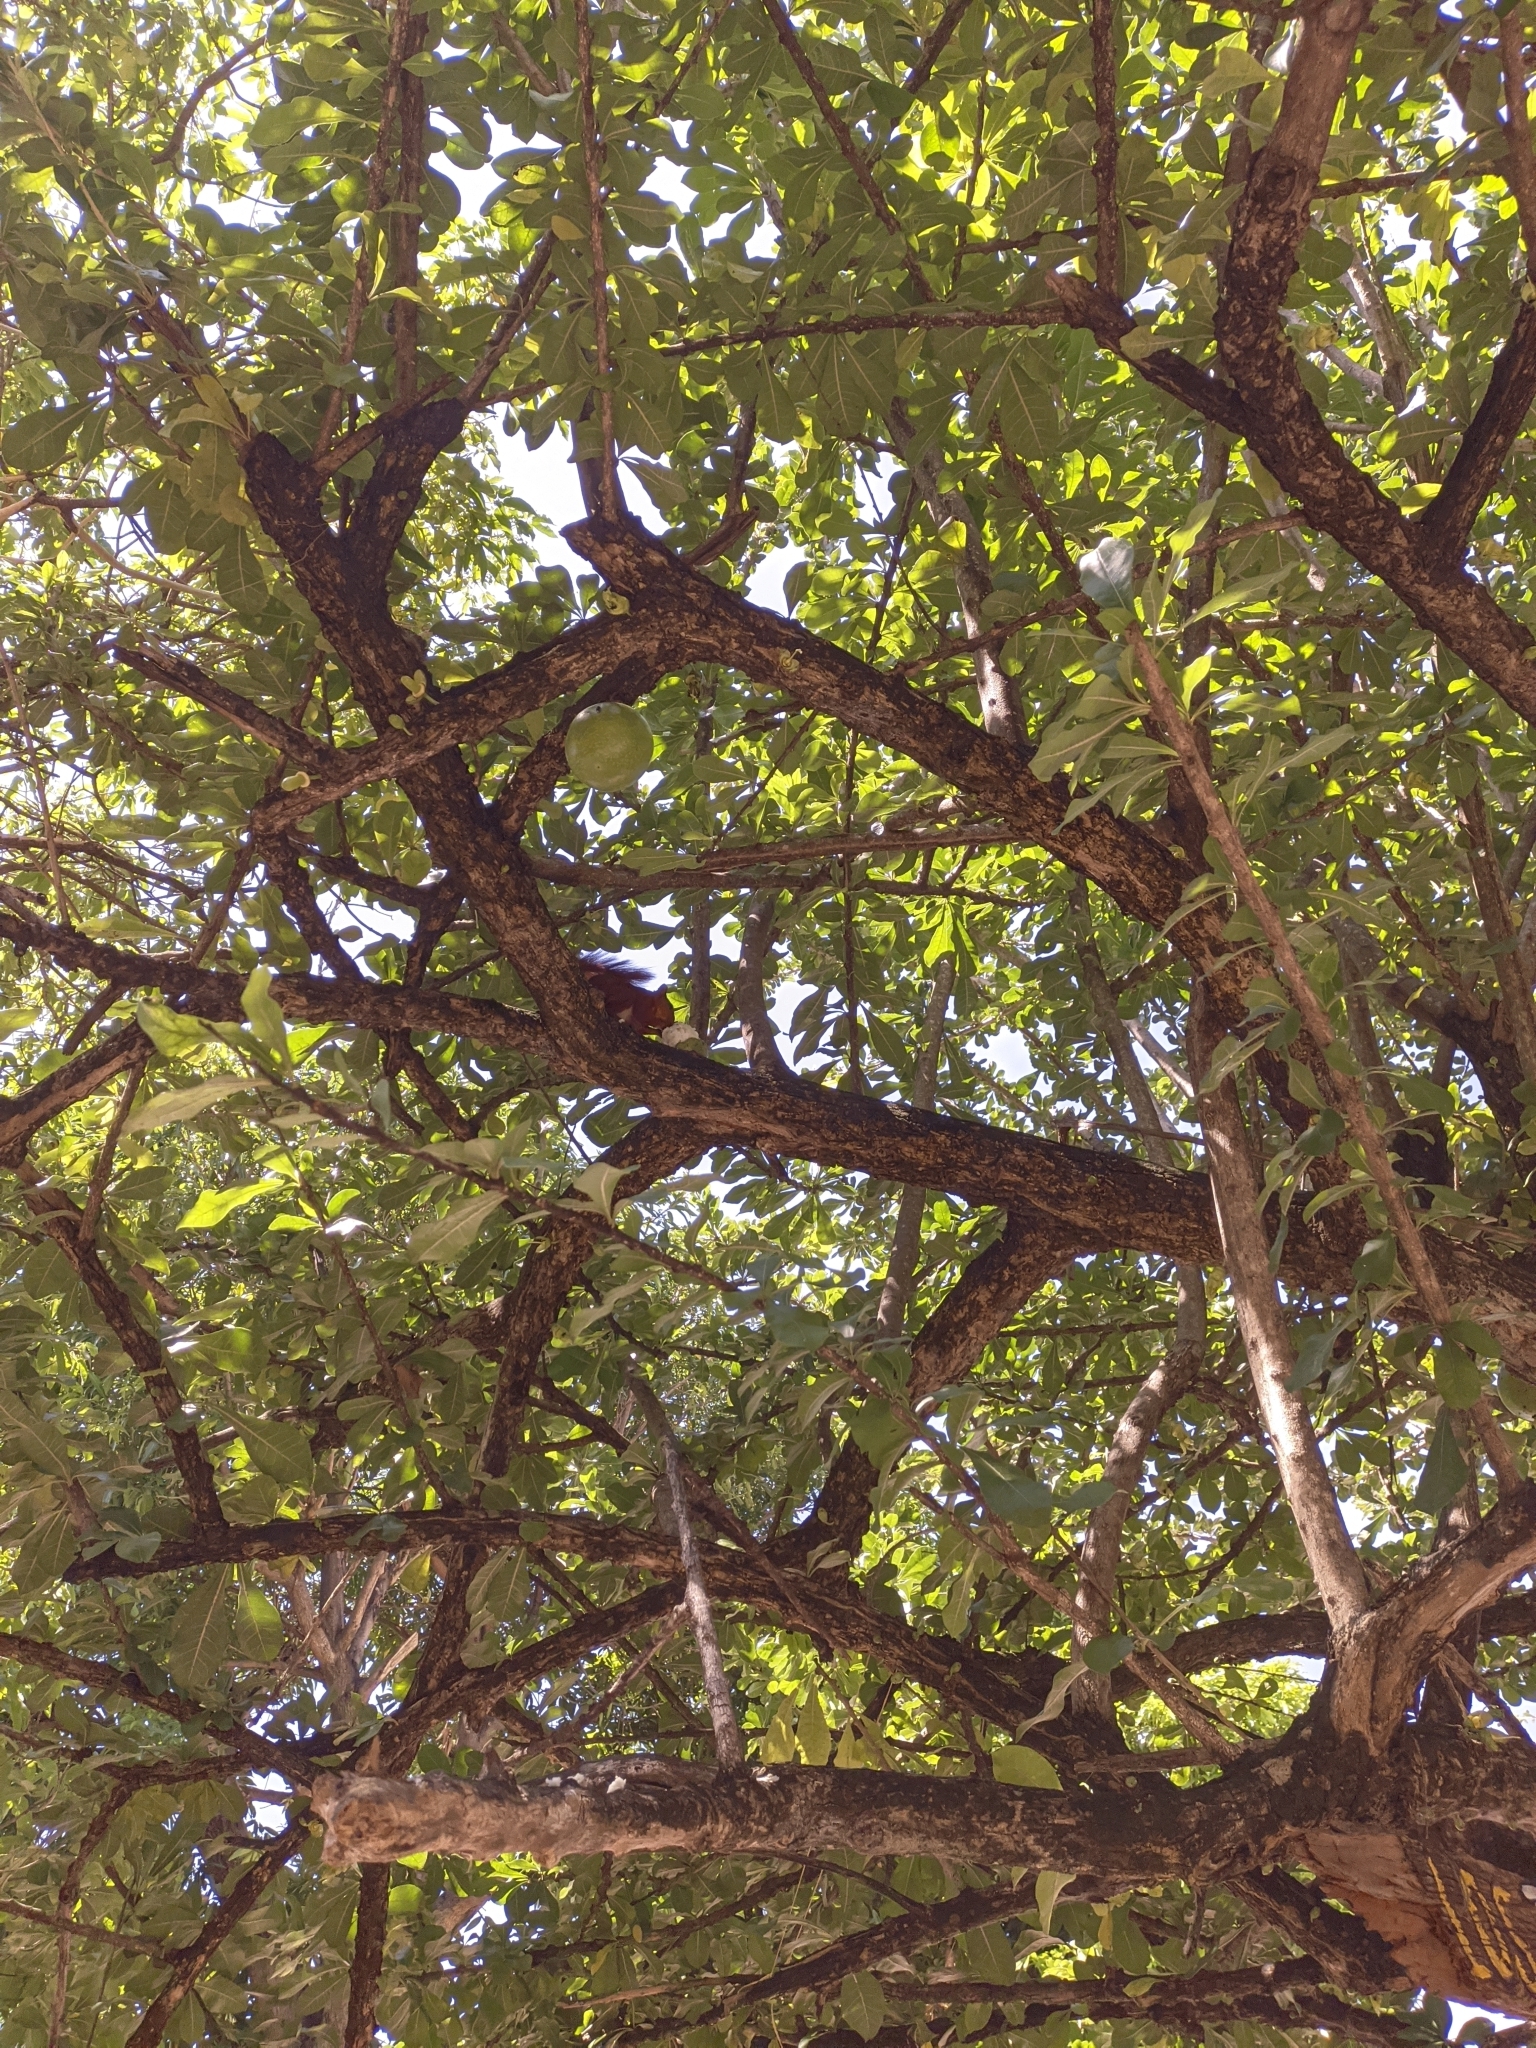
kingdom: Animalia
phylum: Chordata
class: Mammalia
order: Rodentia
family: Sciuridae
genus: Sciurus
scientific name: Sciurus granatensis
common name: Red-tailed squirrel
